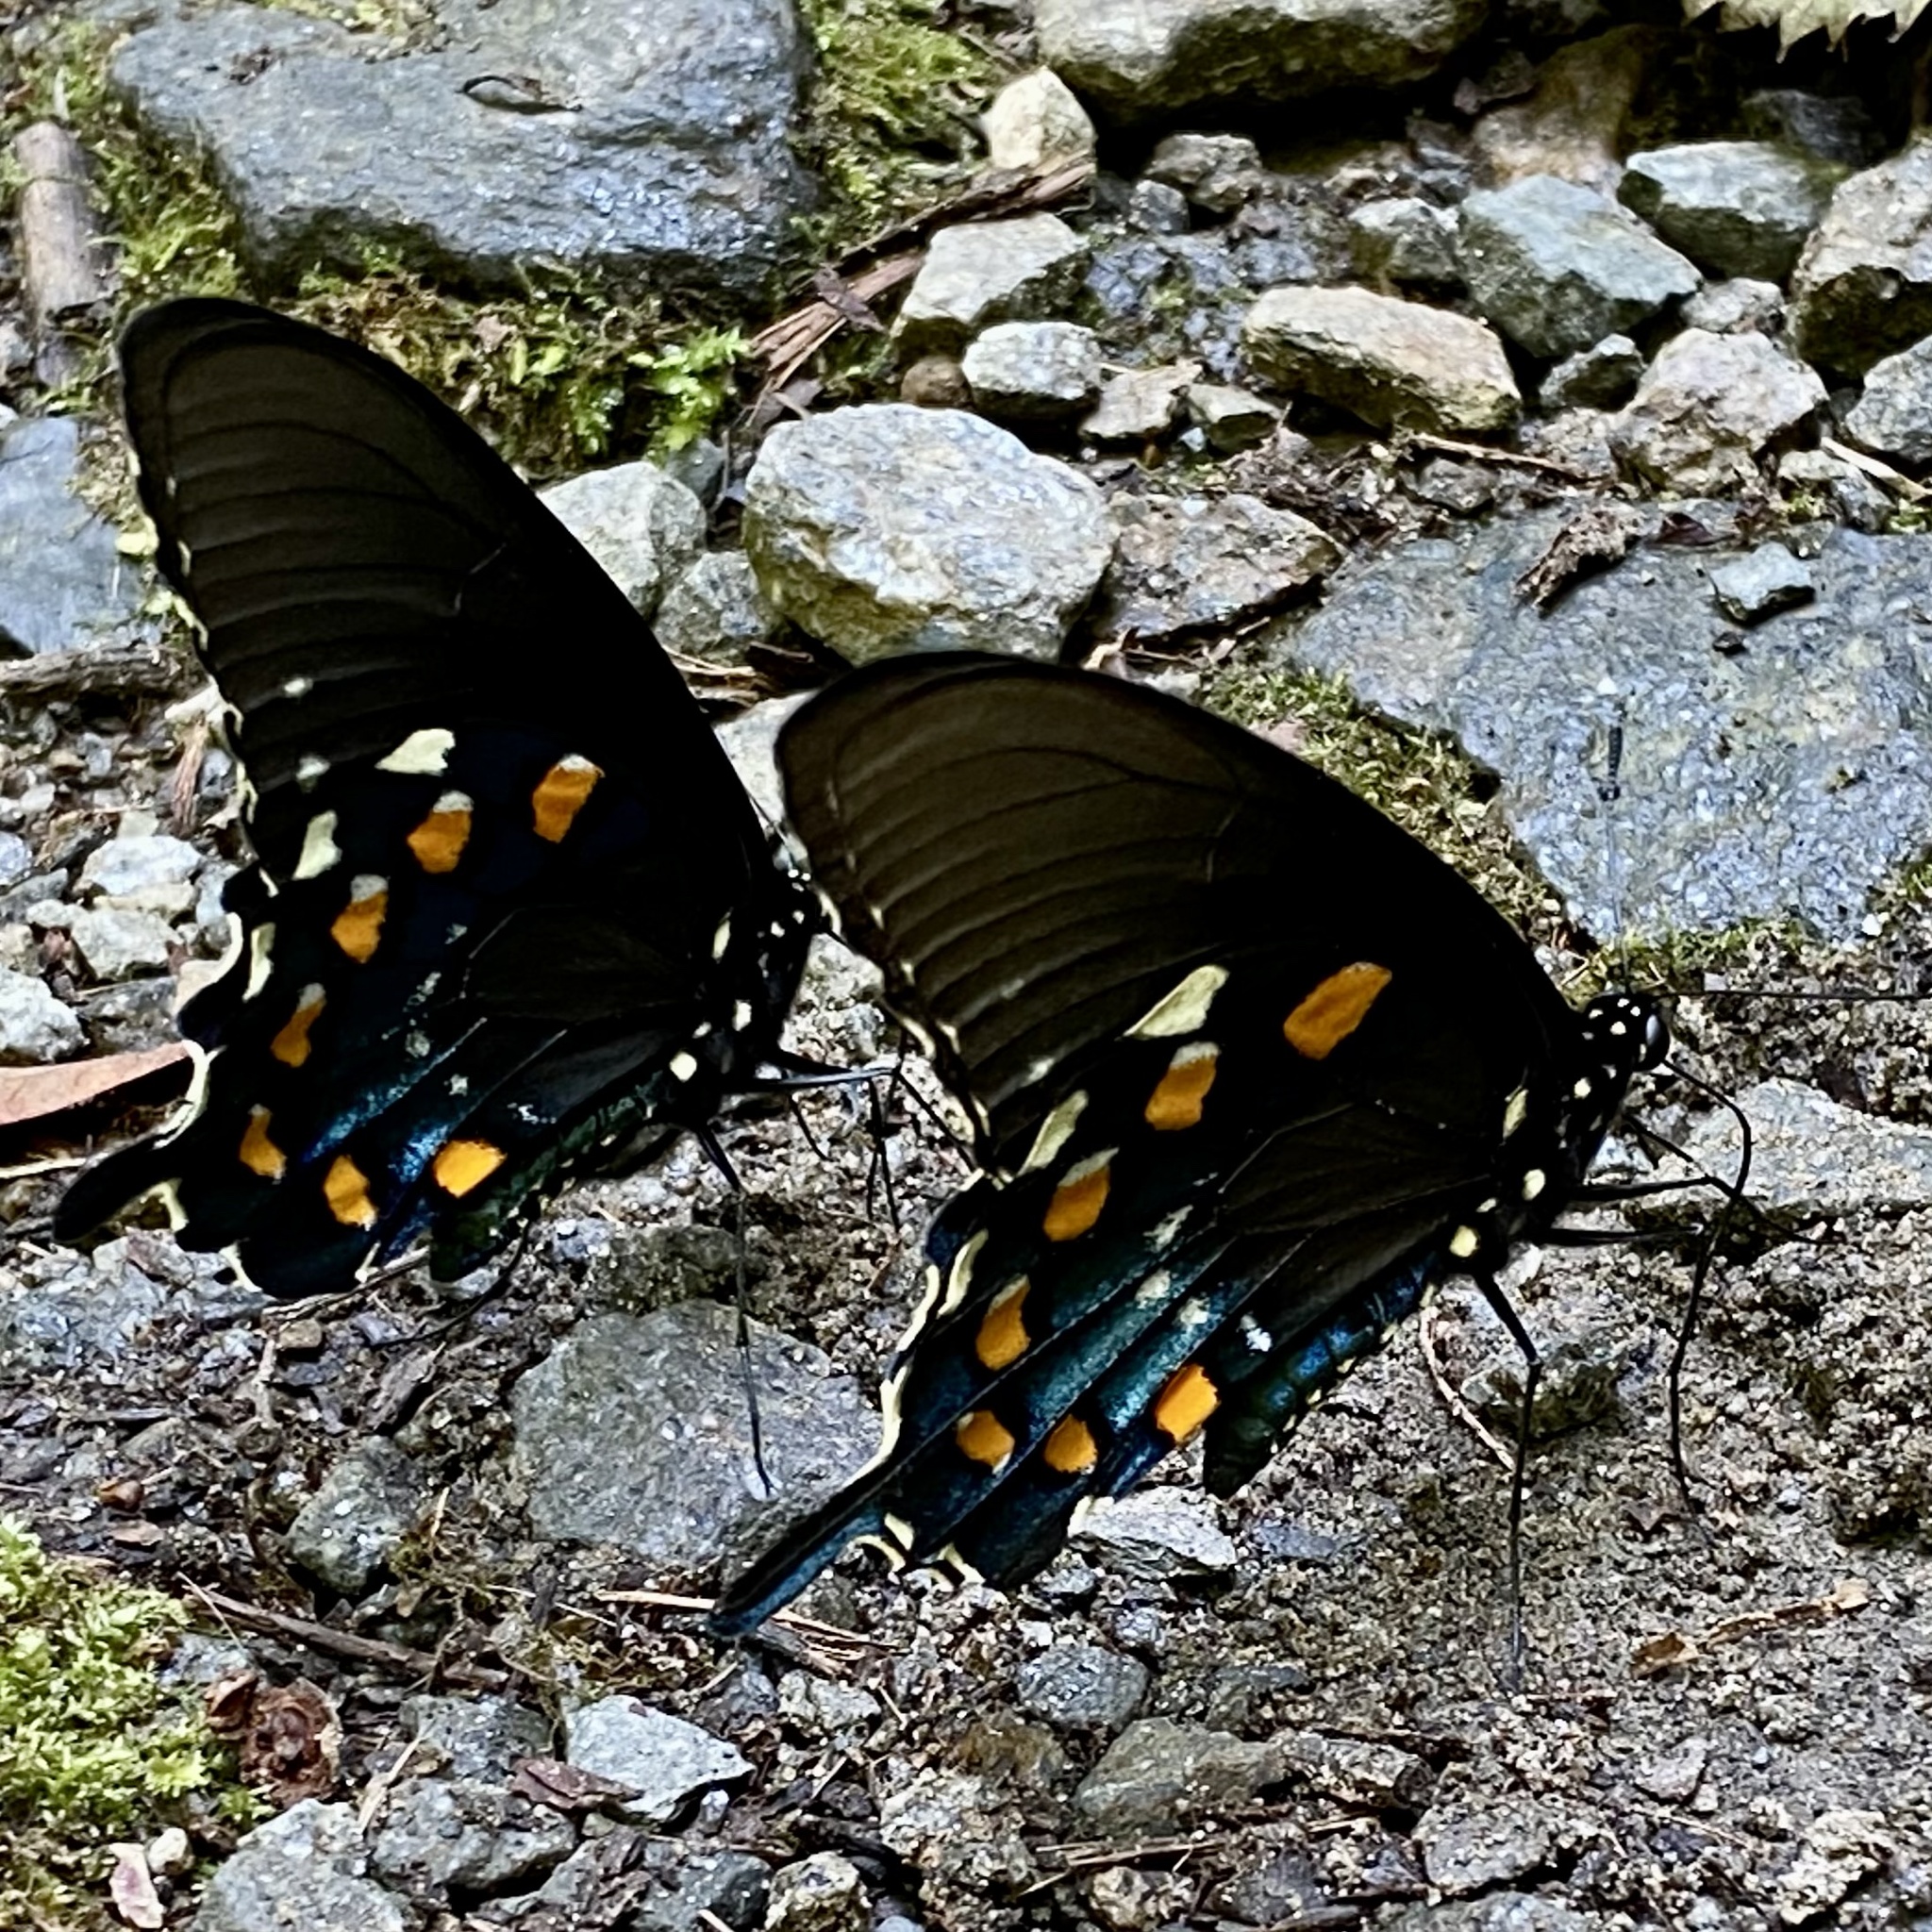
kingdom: Animalia
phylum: Arthropoda
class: Insecta
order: Lepidoptera
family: Papilionidae
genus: Battus
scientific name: Battus philenor
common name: Pipevine swallowtail
